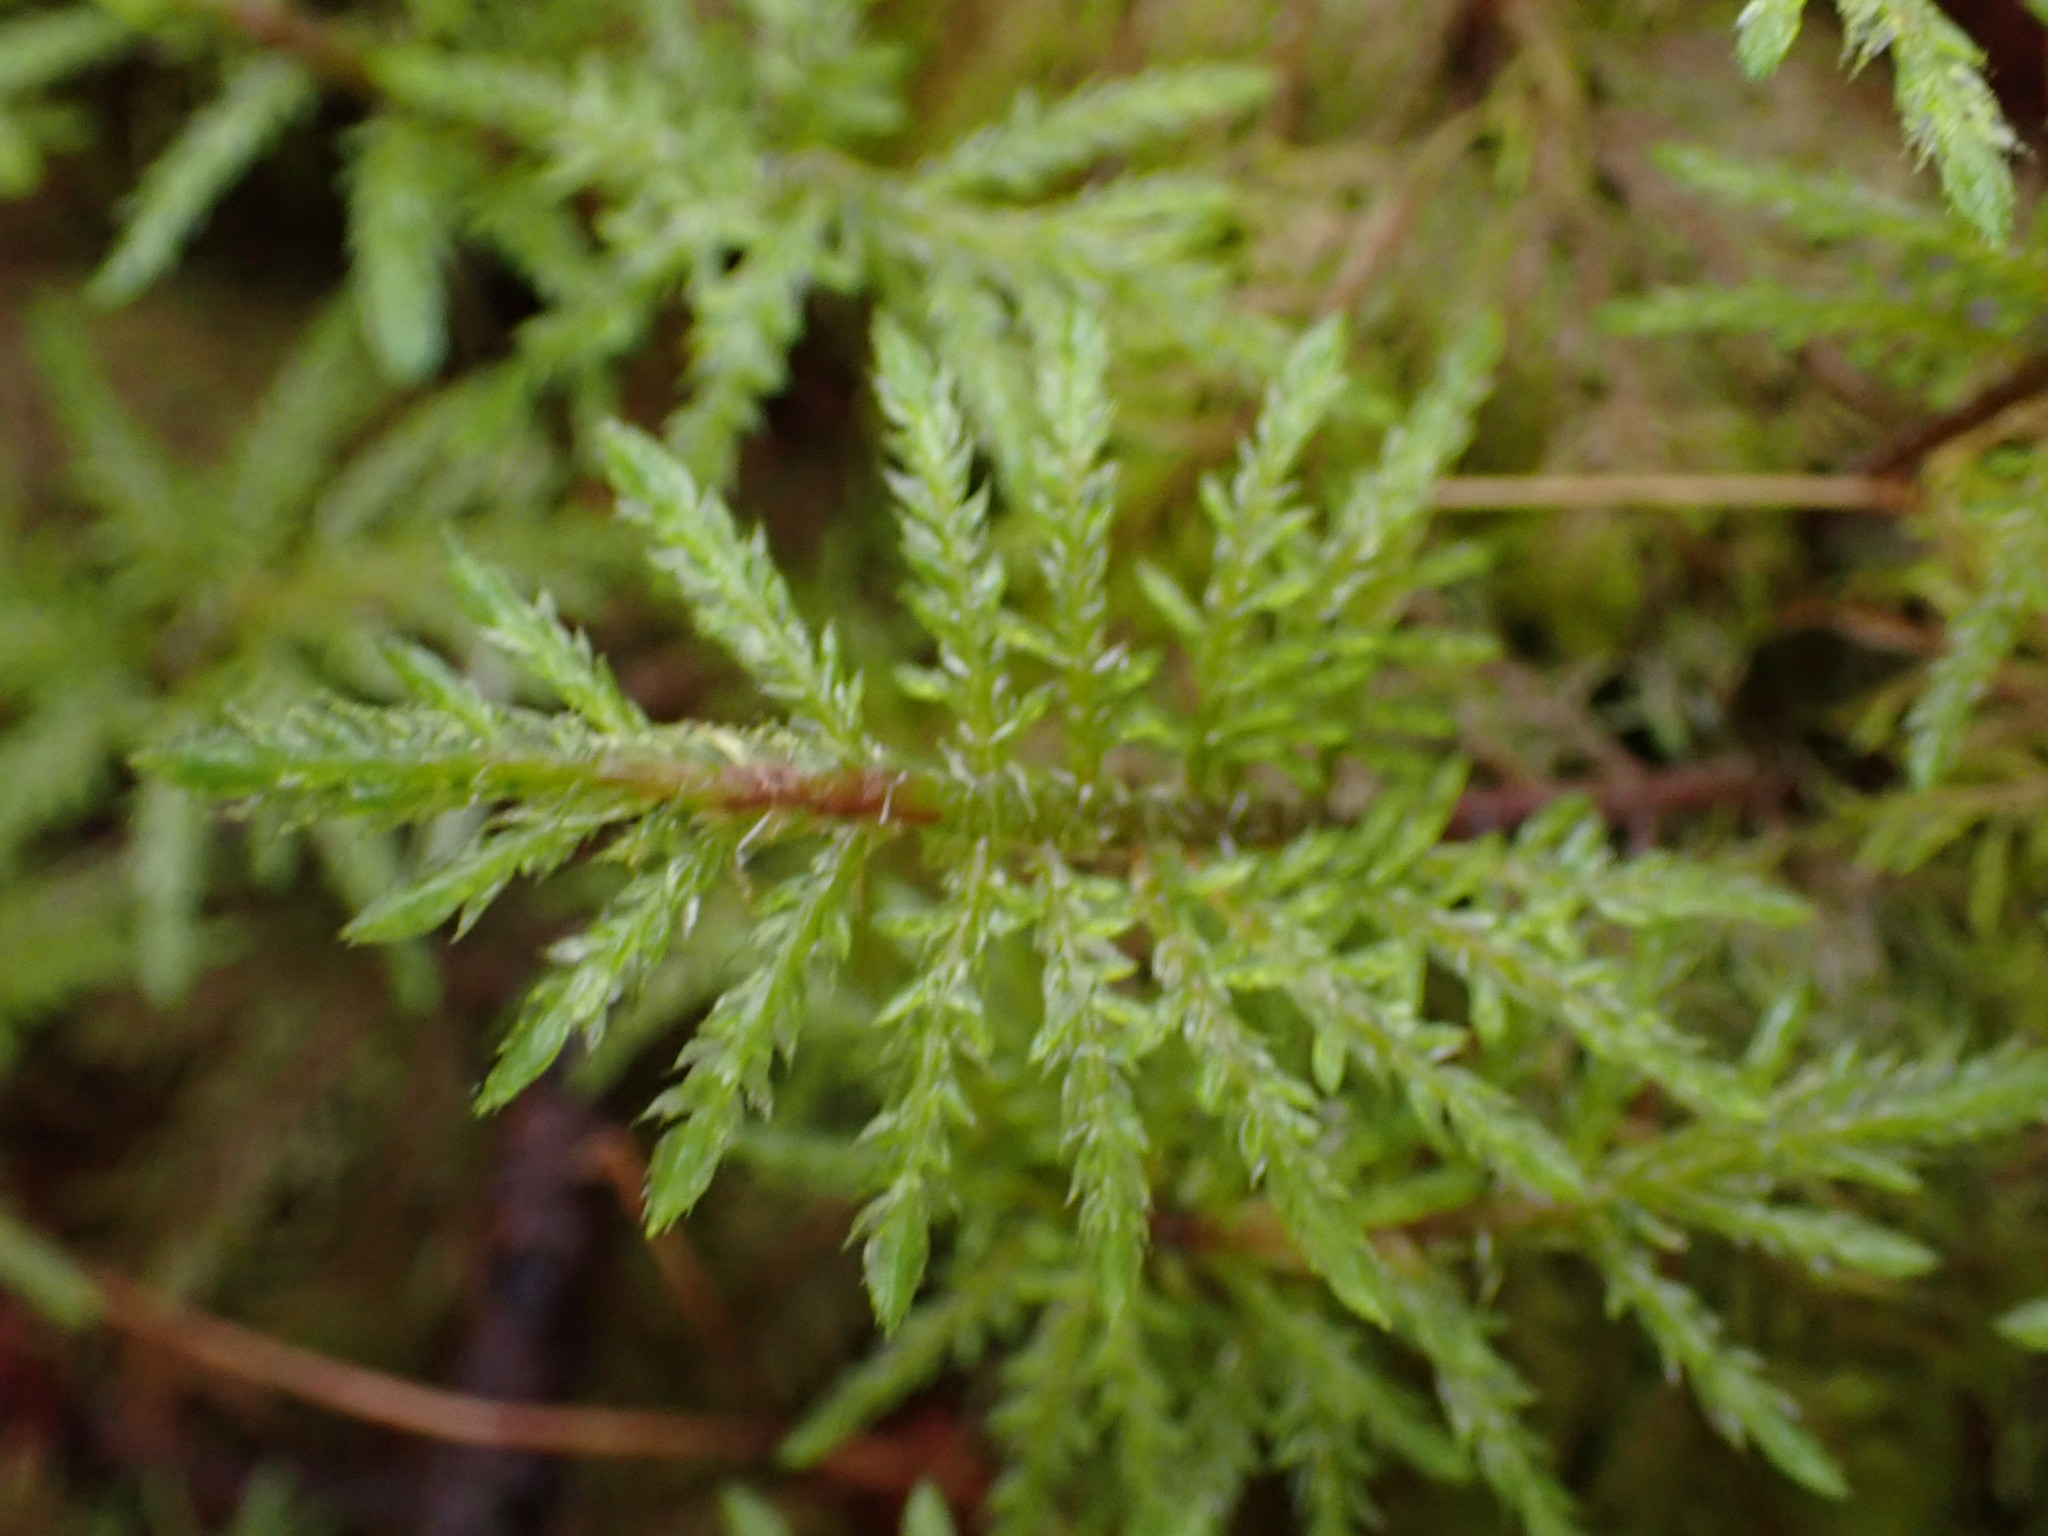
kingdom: Plantae
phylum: Bryophyta
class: Bryopsida
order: Hypnales
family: Hylocomiaceae
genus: Hylocomium
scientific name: Hylocomium splendens
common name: Stairstep moss
